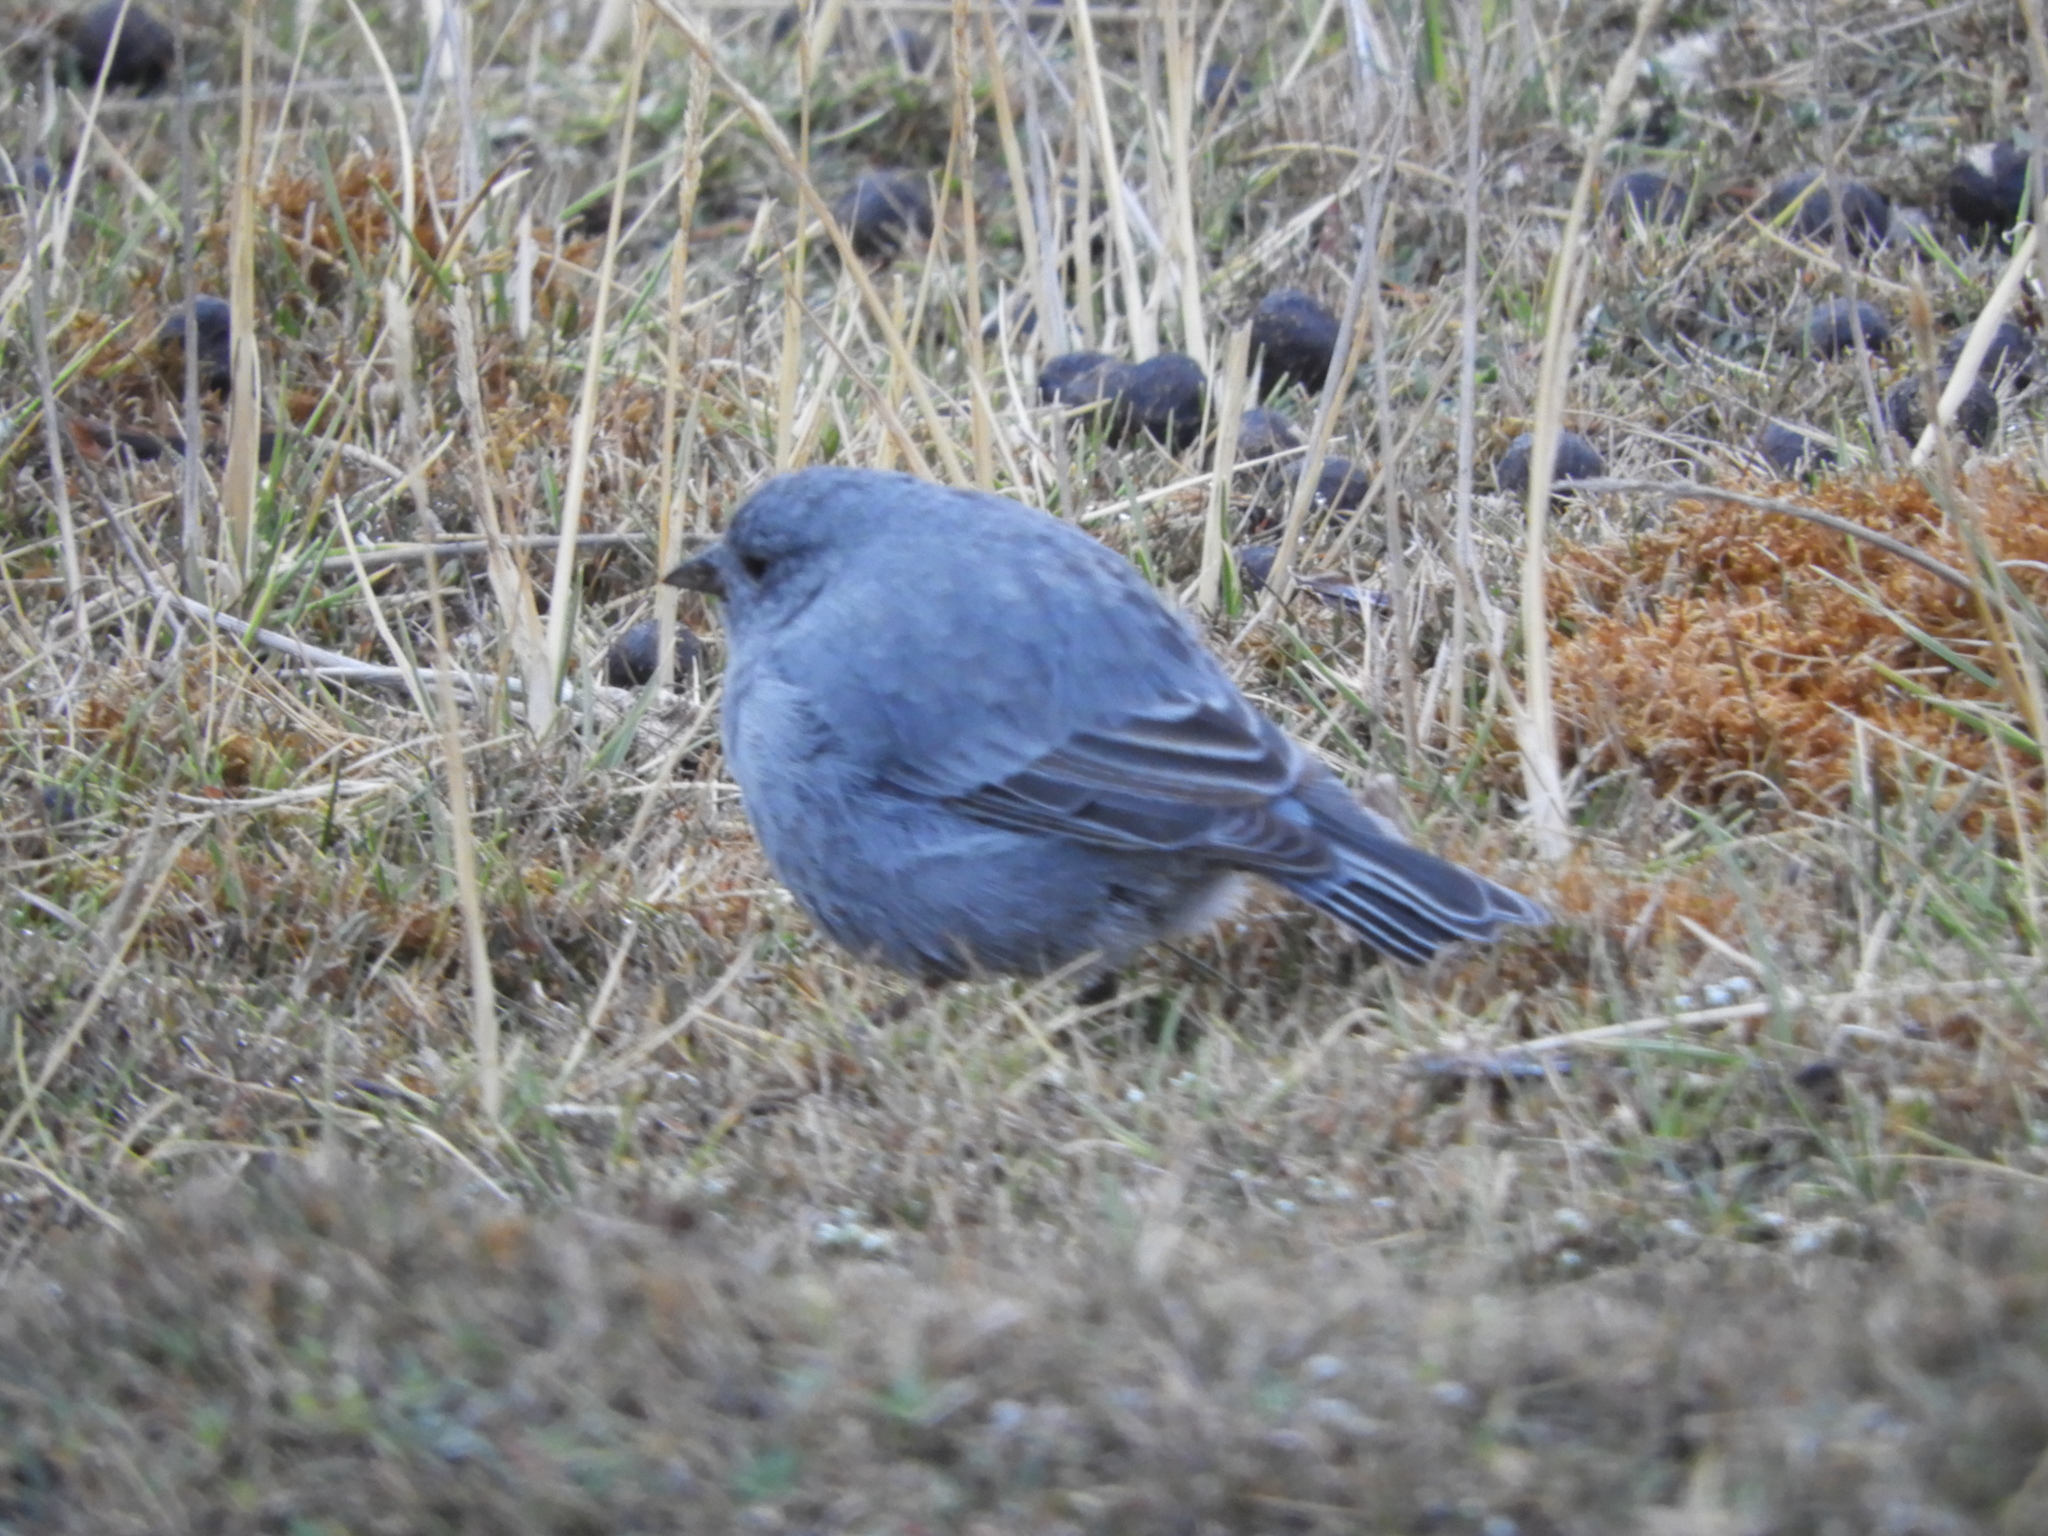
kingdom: Animalia
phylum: Chordata
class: Aves
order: Passeriformes
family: Thraupidae
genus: Geospizopsis
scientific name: Geospizopsis unicolor
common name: Plumbeous sierra-finch
